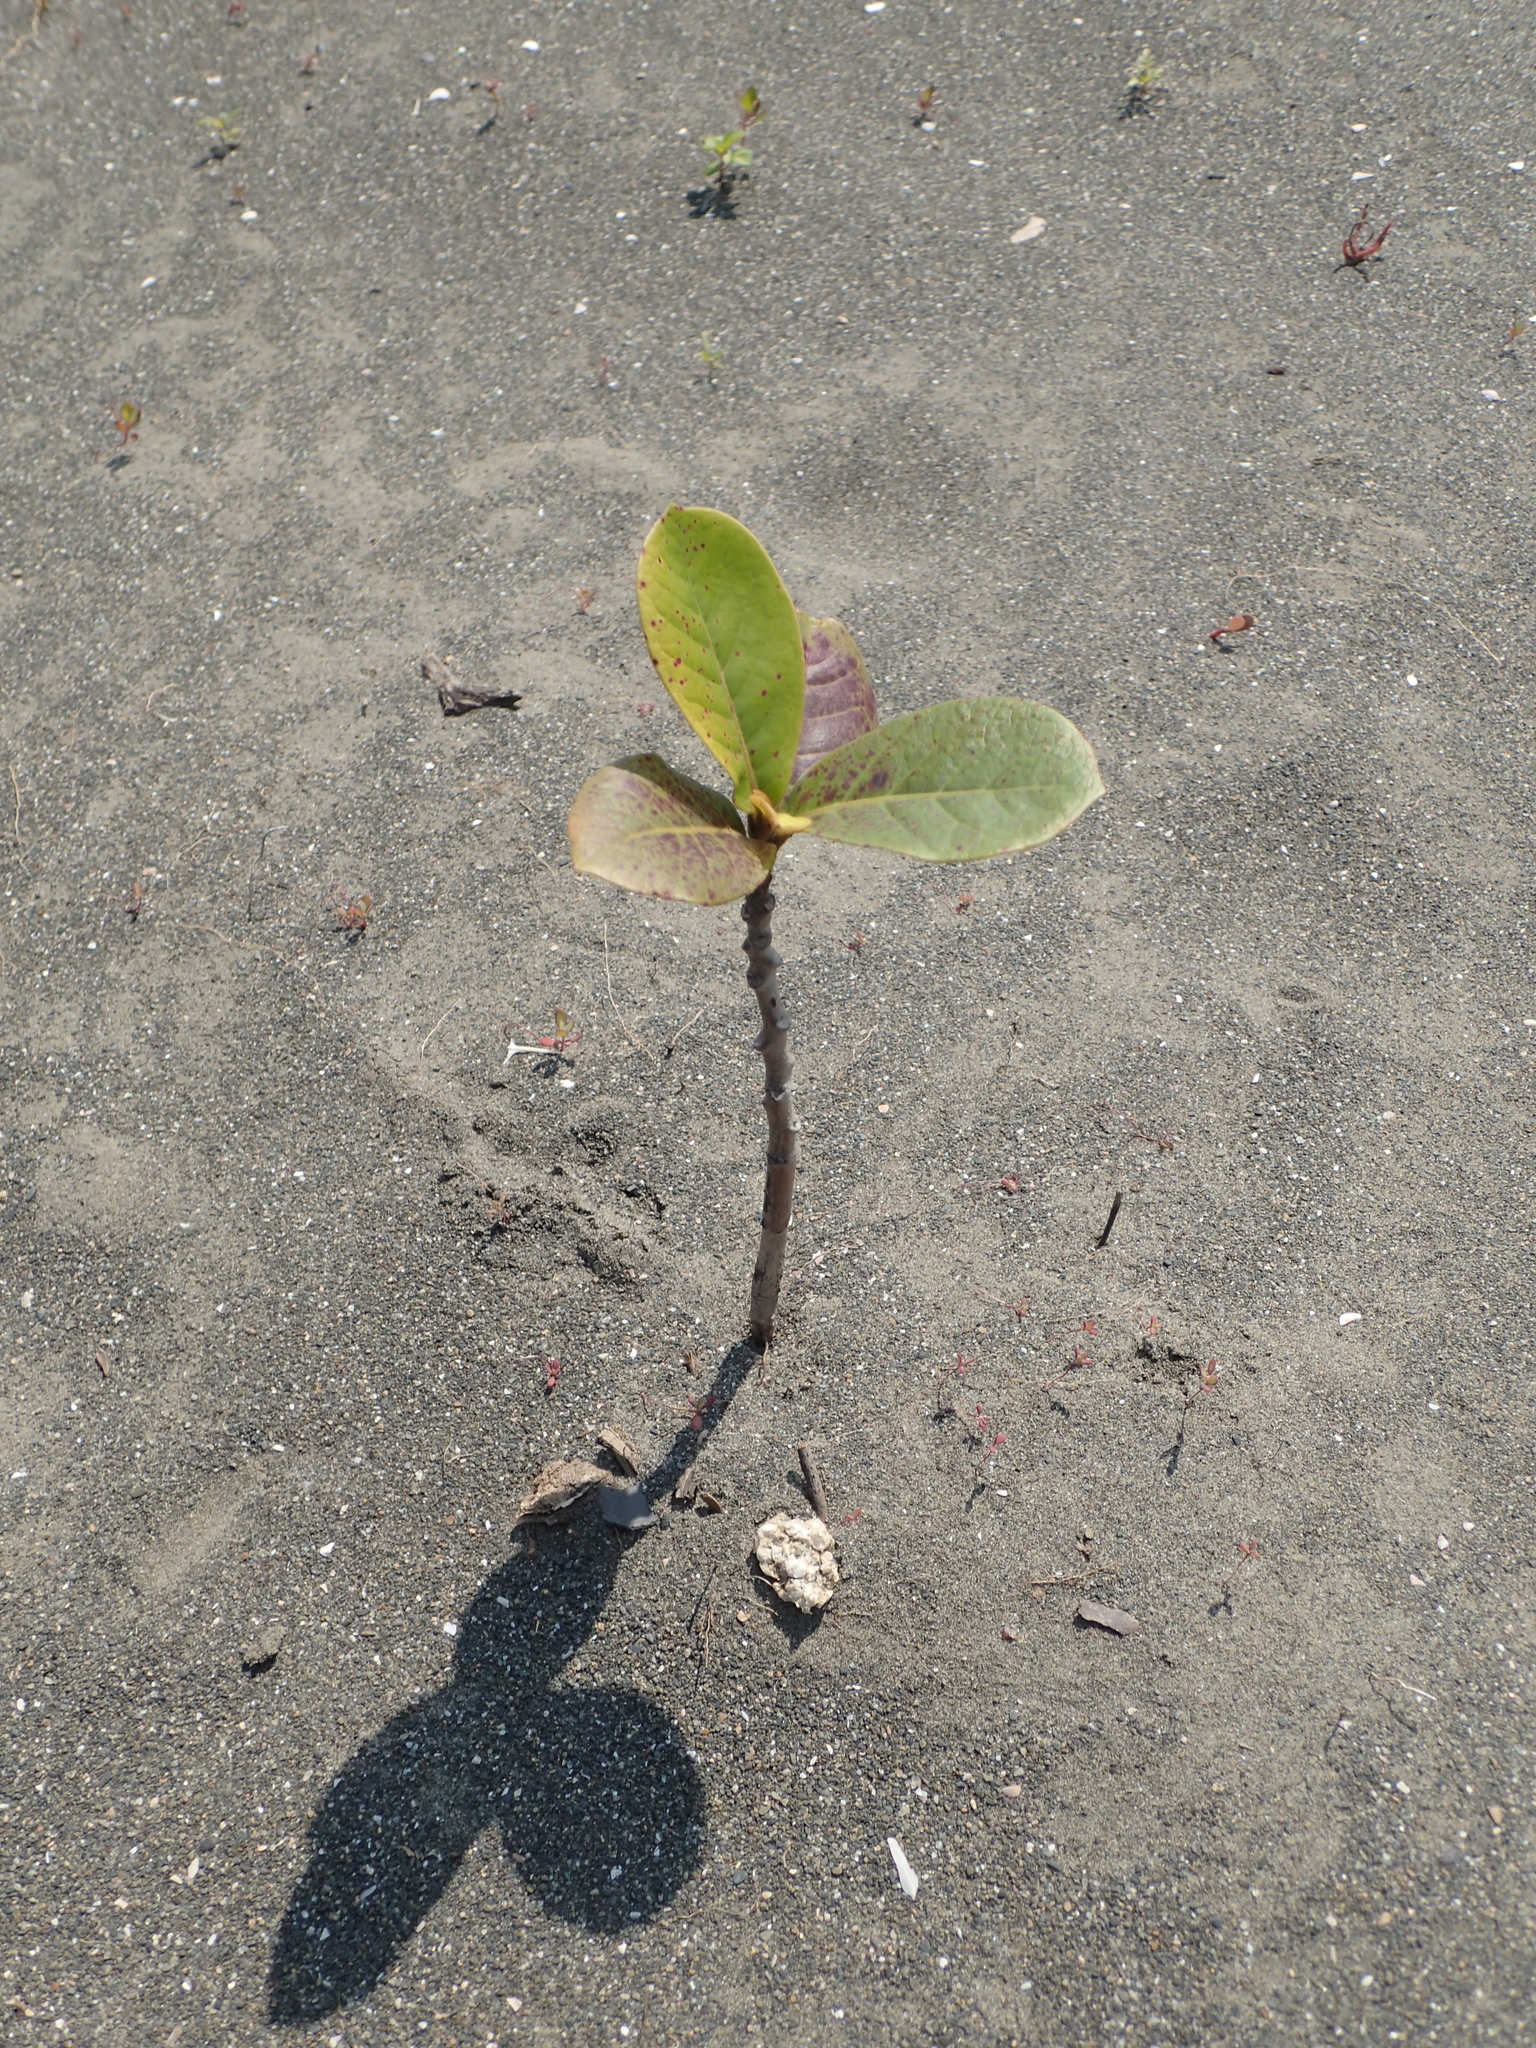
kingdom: Plantae
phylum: Tracheophyta
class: Magnoliopsida
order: Myrtales
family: Combretaceae
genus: Terminalia
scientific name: Terminalia catappa
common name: Tropical almond
